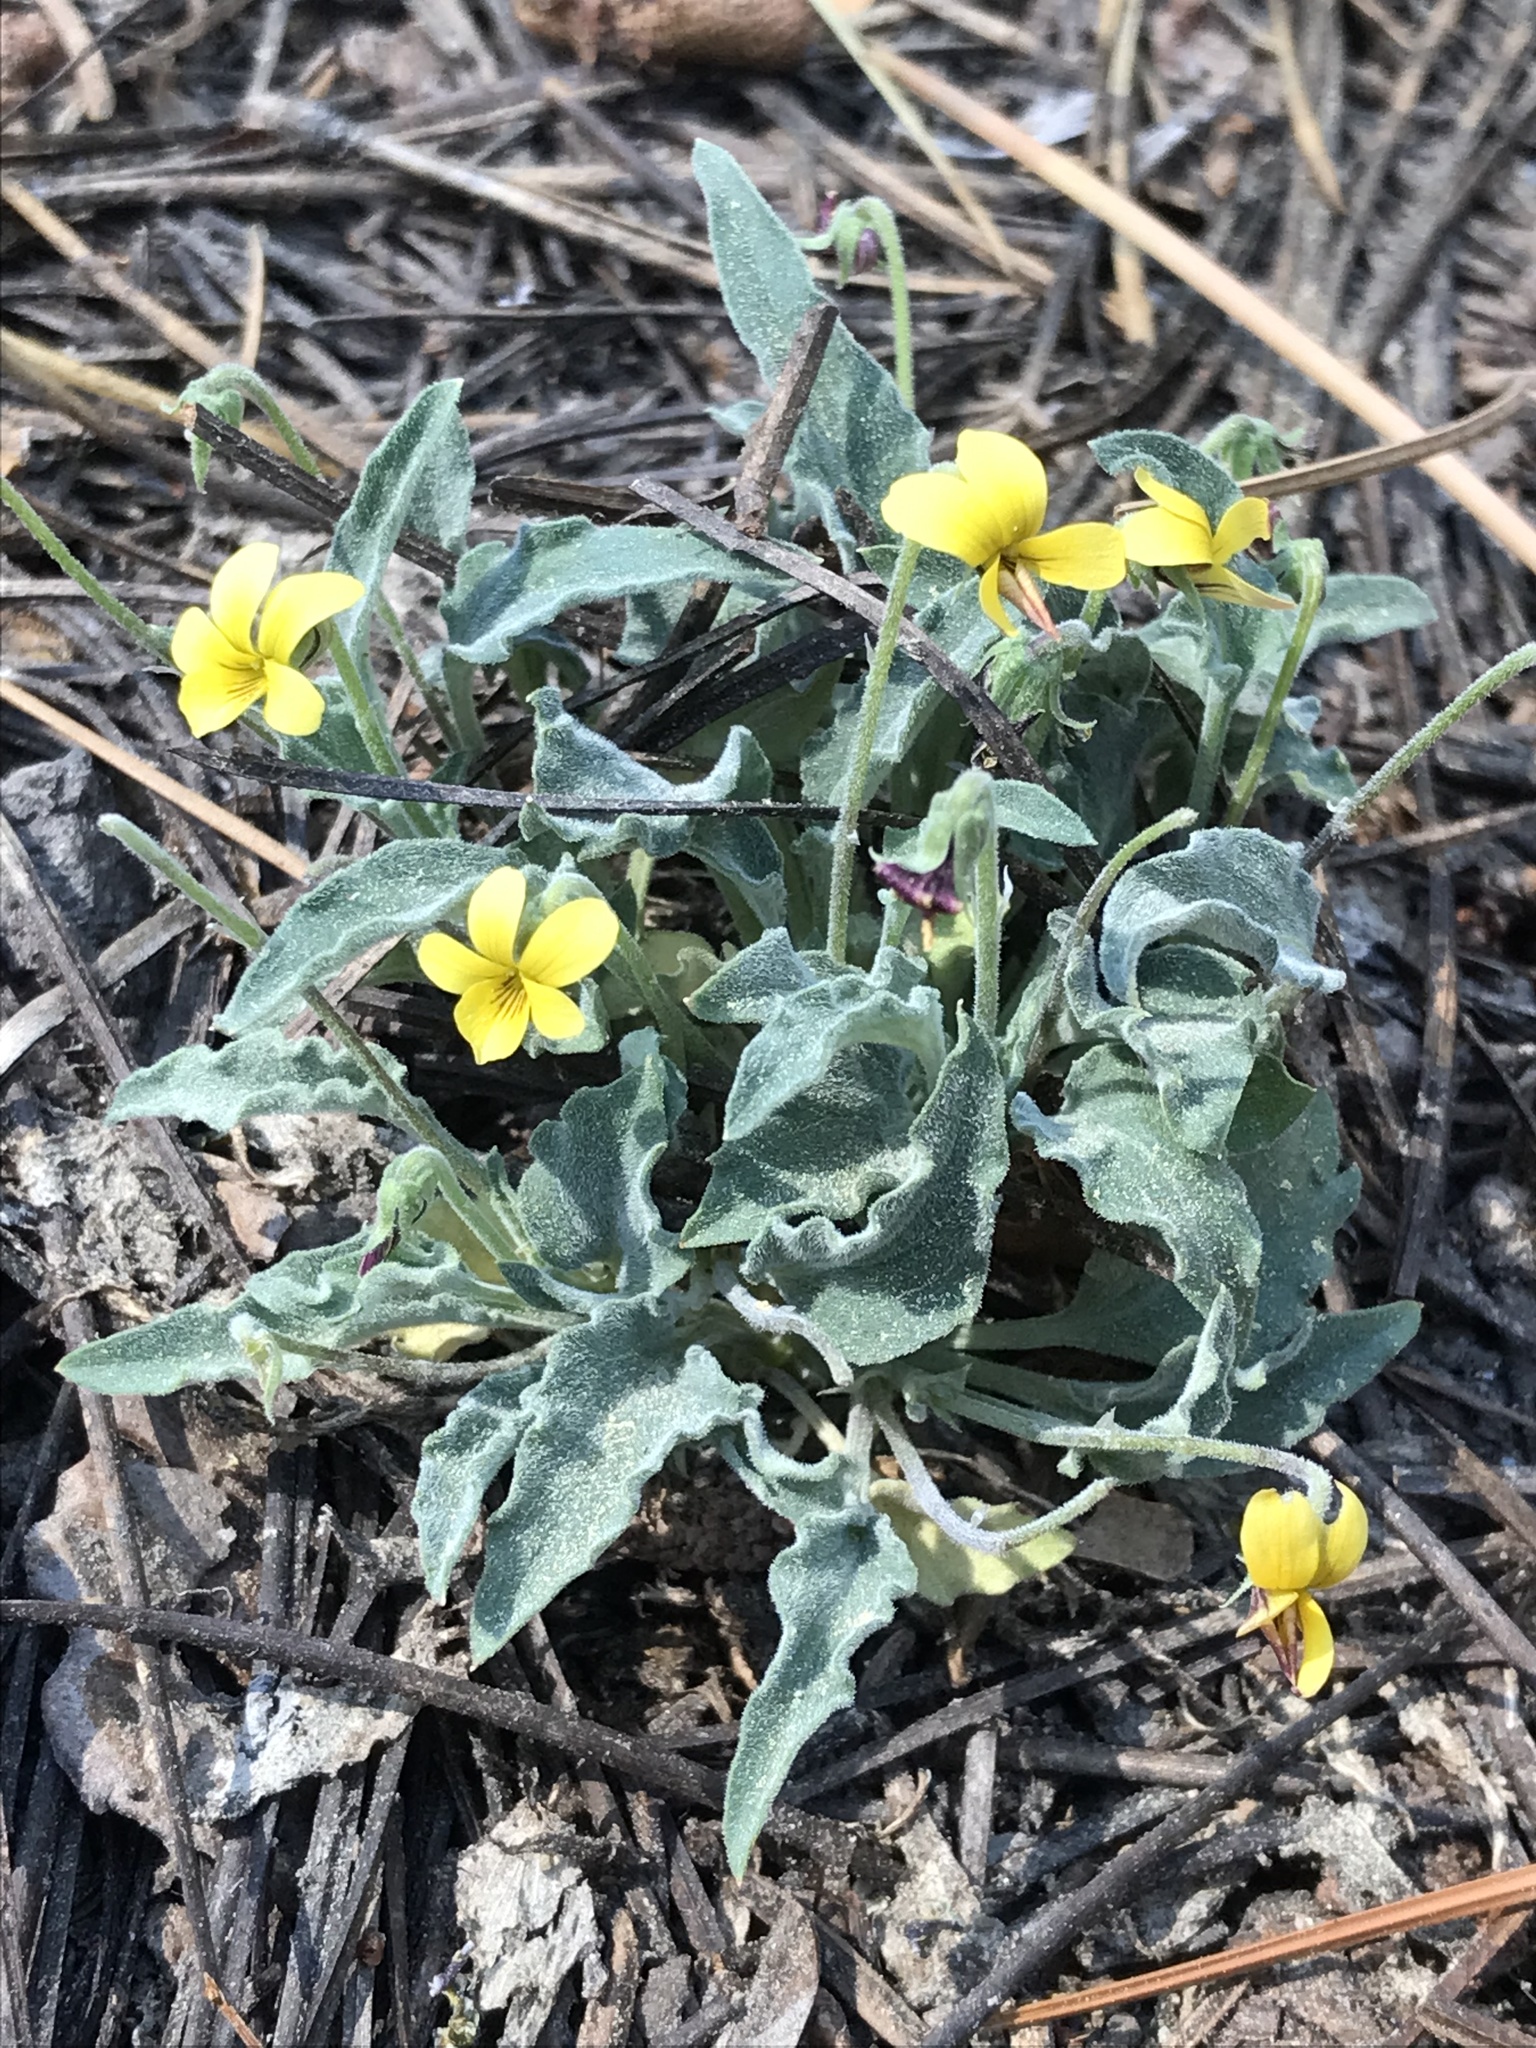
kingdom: Plantae
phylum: Tracheophyta
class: Magnoliopsida
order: Malpighiales
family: Violaceae
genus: Viola
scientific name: Viola pinetorum
